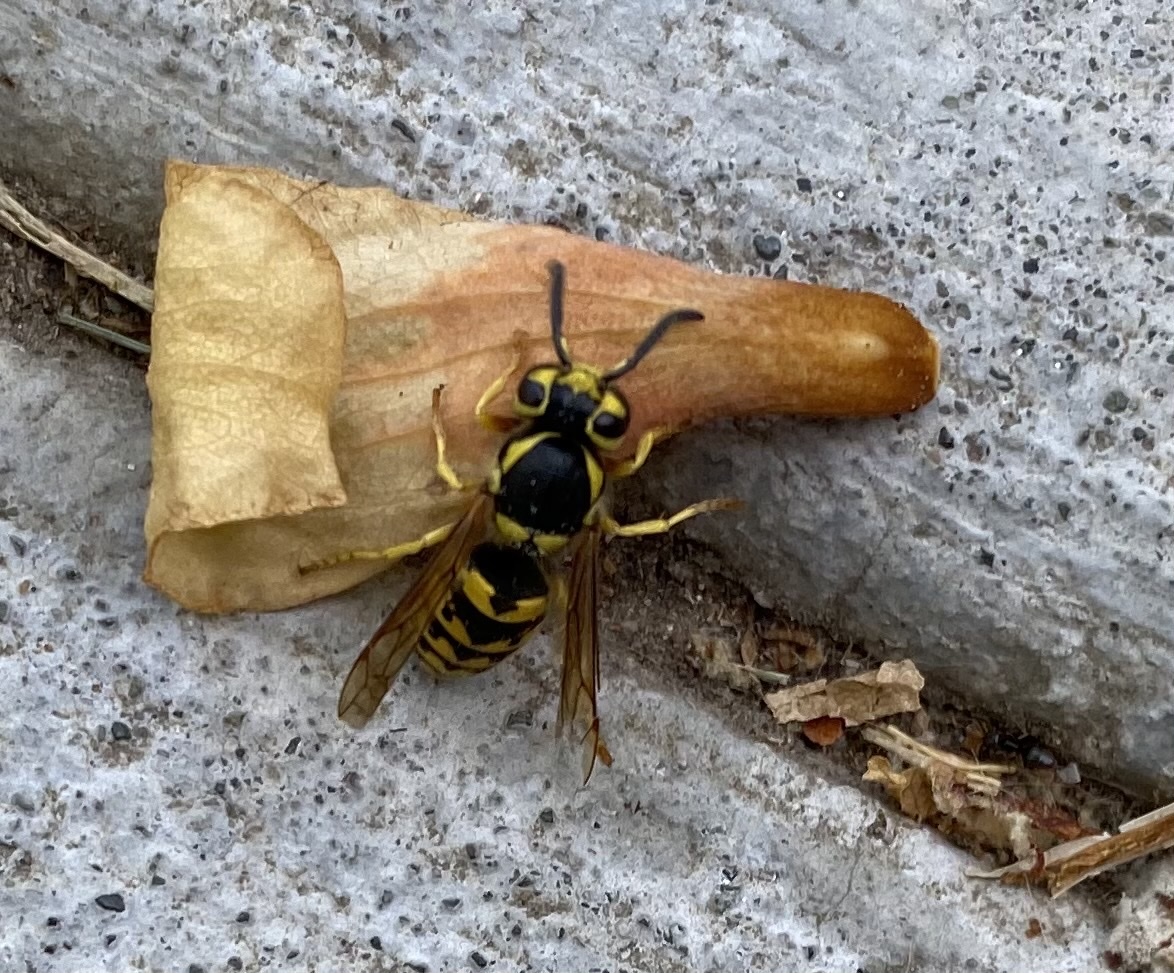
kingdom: Animalia
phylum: Arthropoda
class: Insecta
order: Hymenoptera
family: Vespidae
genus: Vespula
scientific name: Vespula pensylvanica
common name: Western yellowjacket
